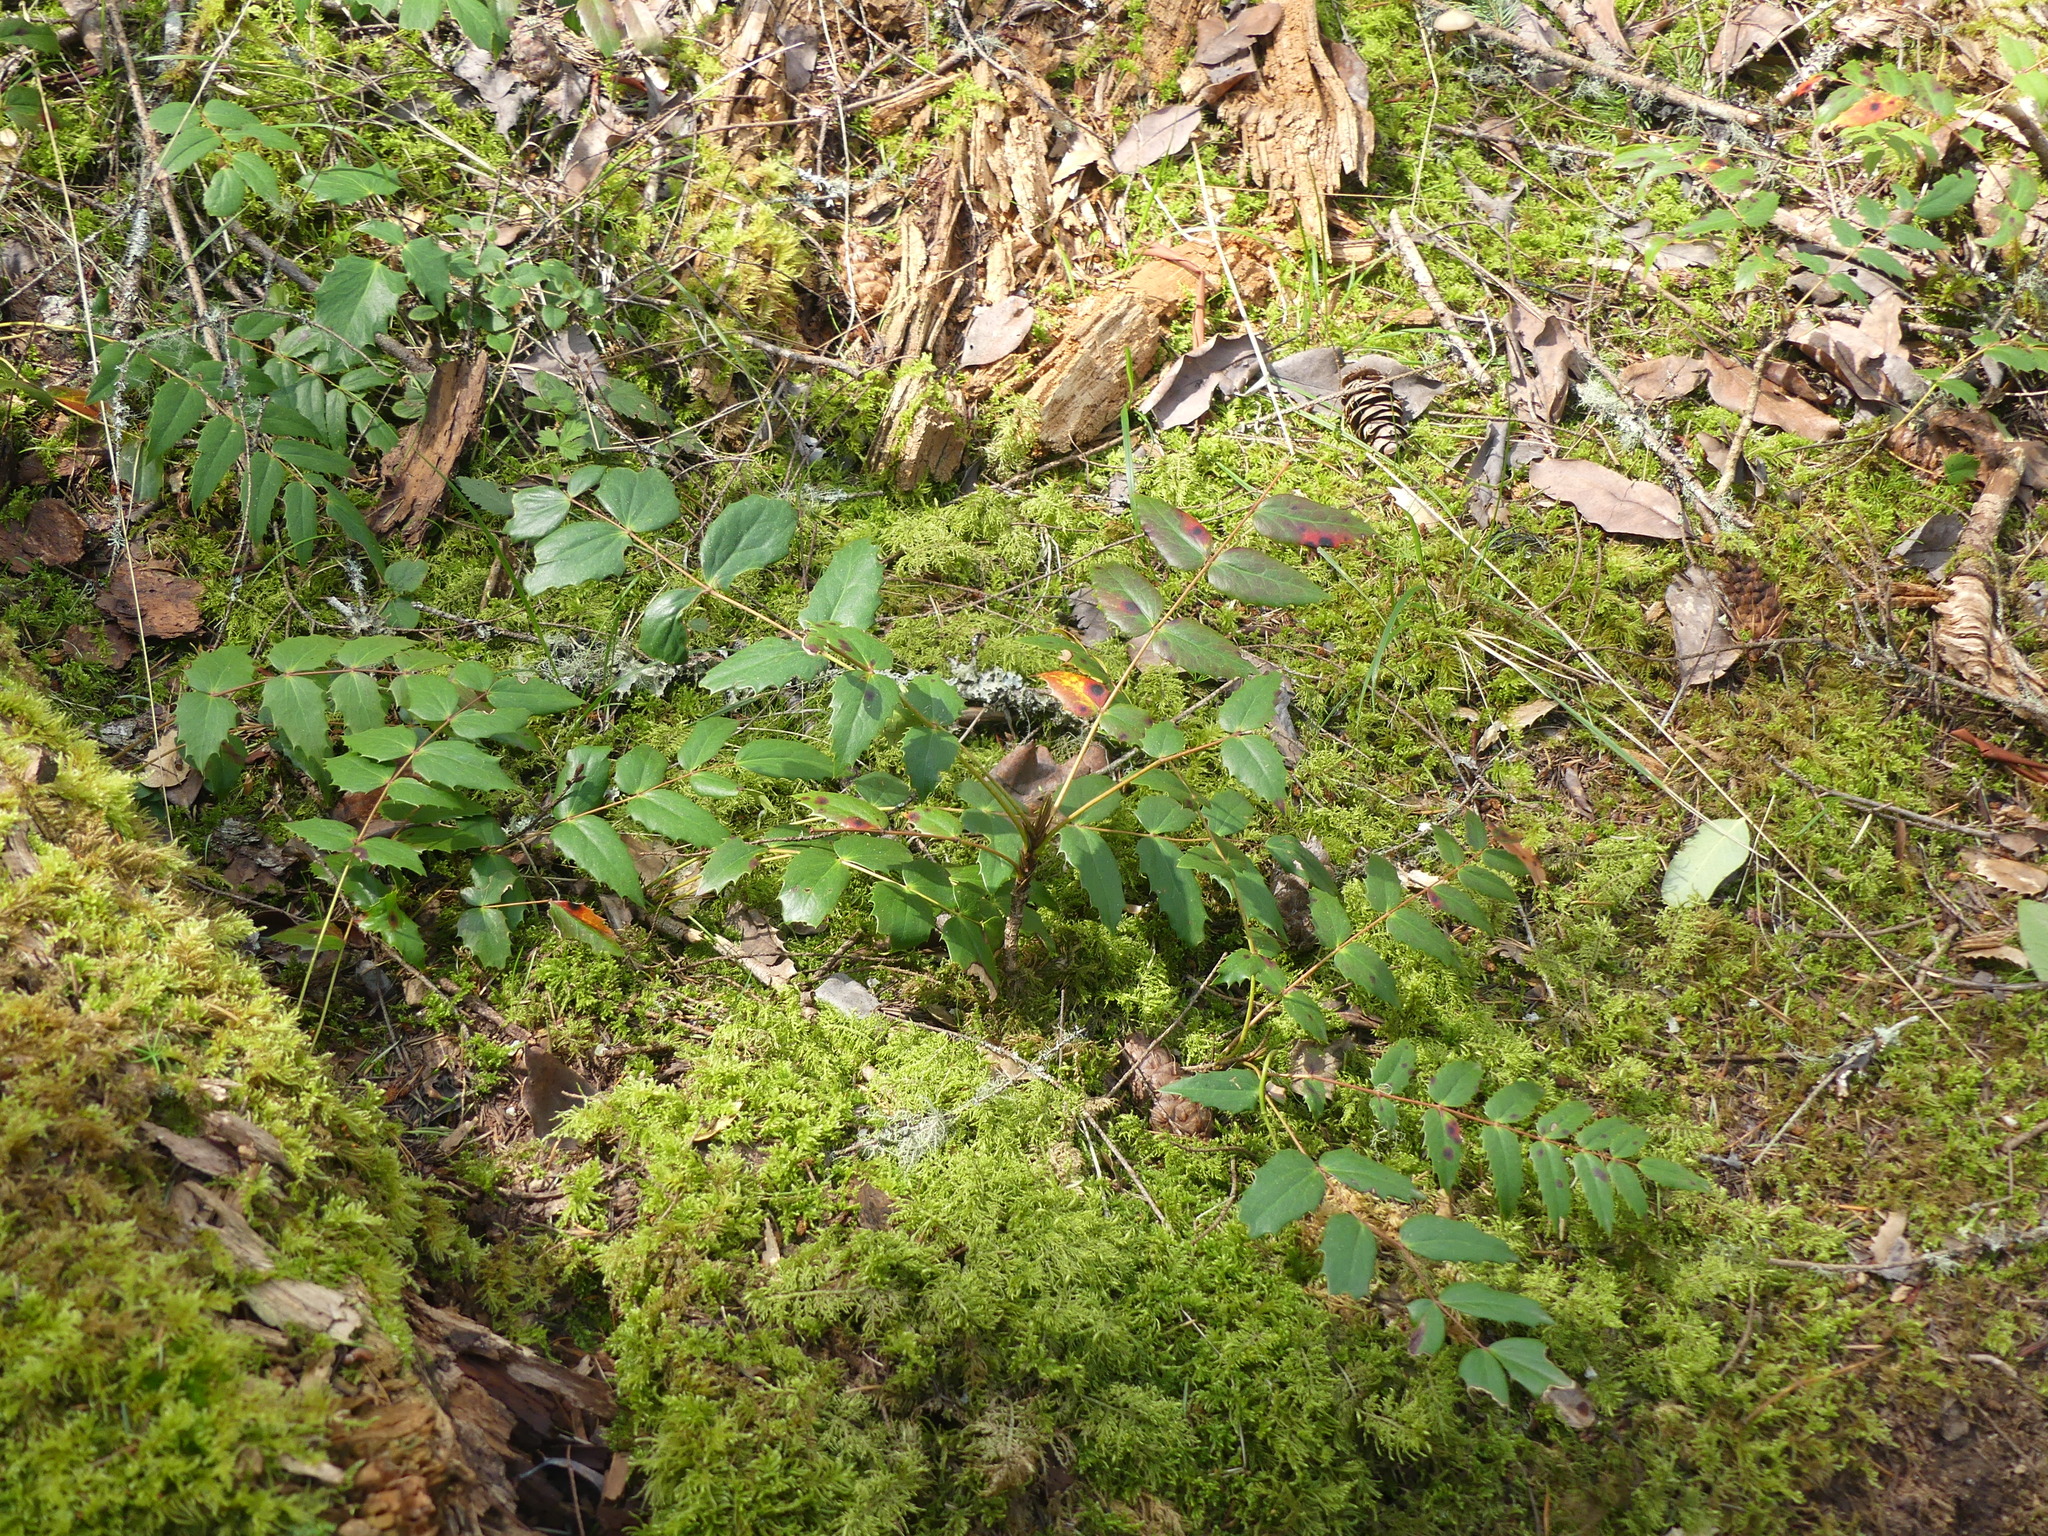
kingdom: Plantae
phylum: Tracheophyta
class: Magnoliopsida
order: Ranunculales
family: Berberidaceae
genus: Mahonia
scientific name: Mahonia nervosa
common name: Cascade oregon-grape
